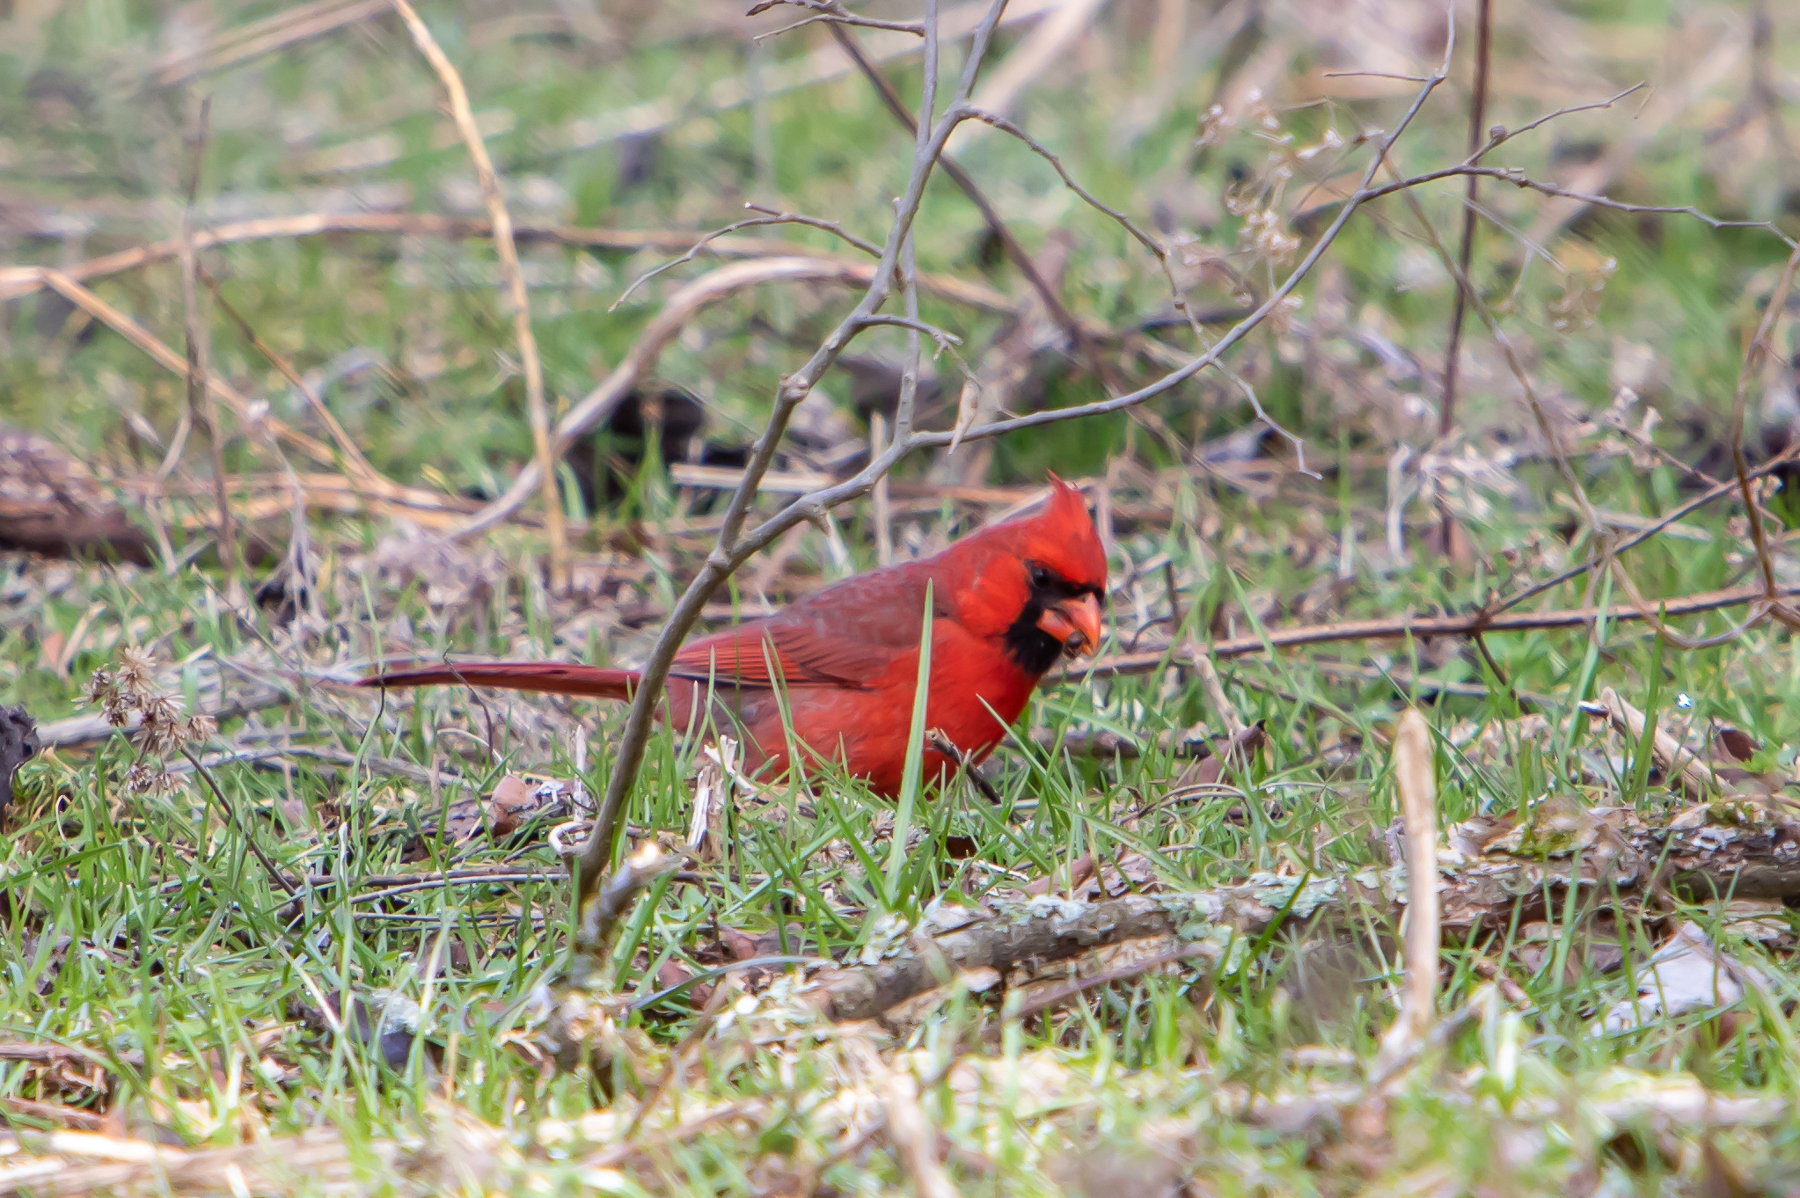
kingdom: Animalia
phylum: Chordata
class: Aves
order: Passeriformes
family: Cardinalidae
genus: Cardinalis
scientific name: Cardinalis cardinalis
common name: Northern cardinal
